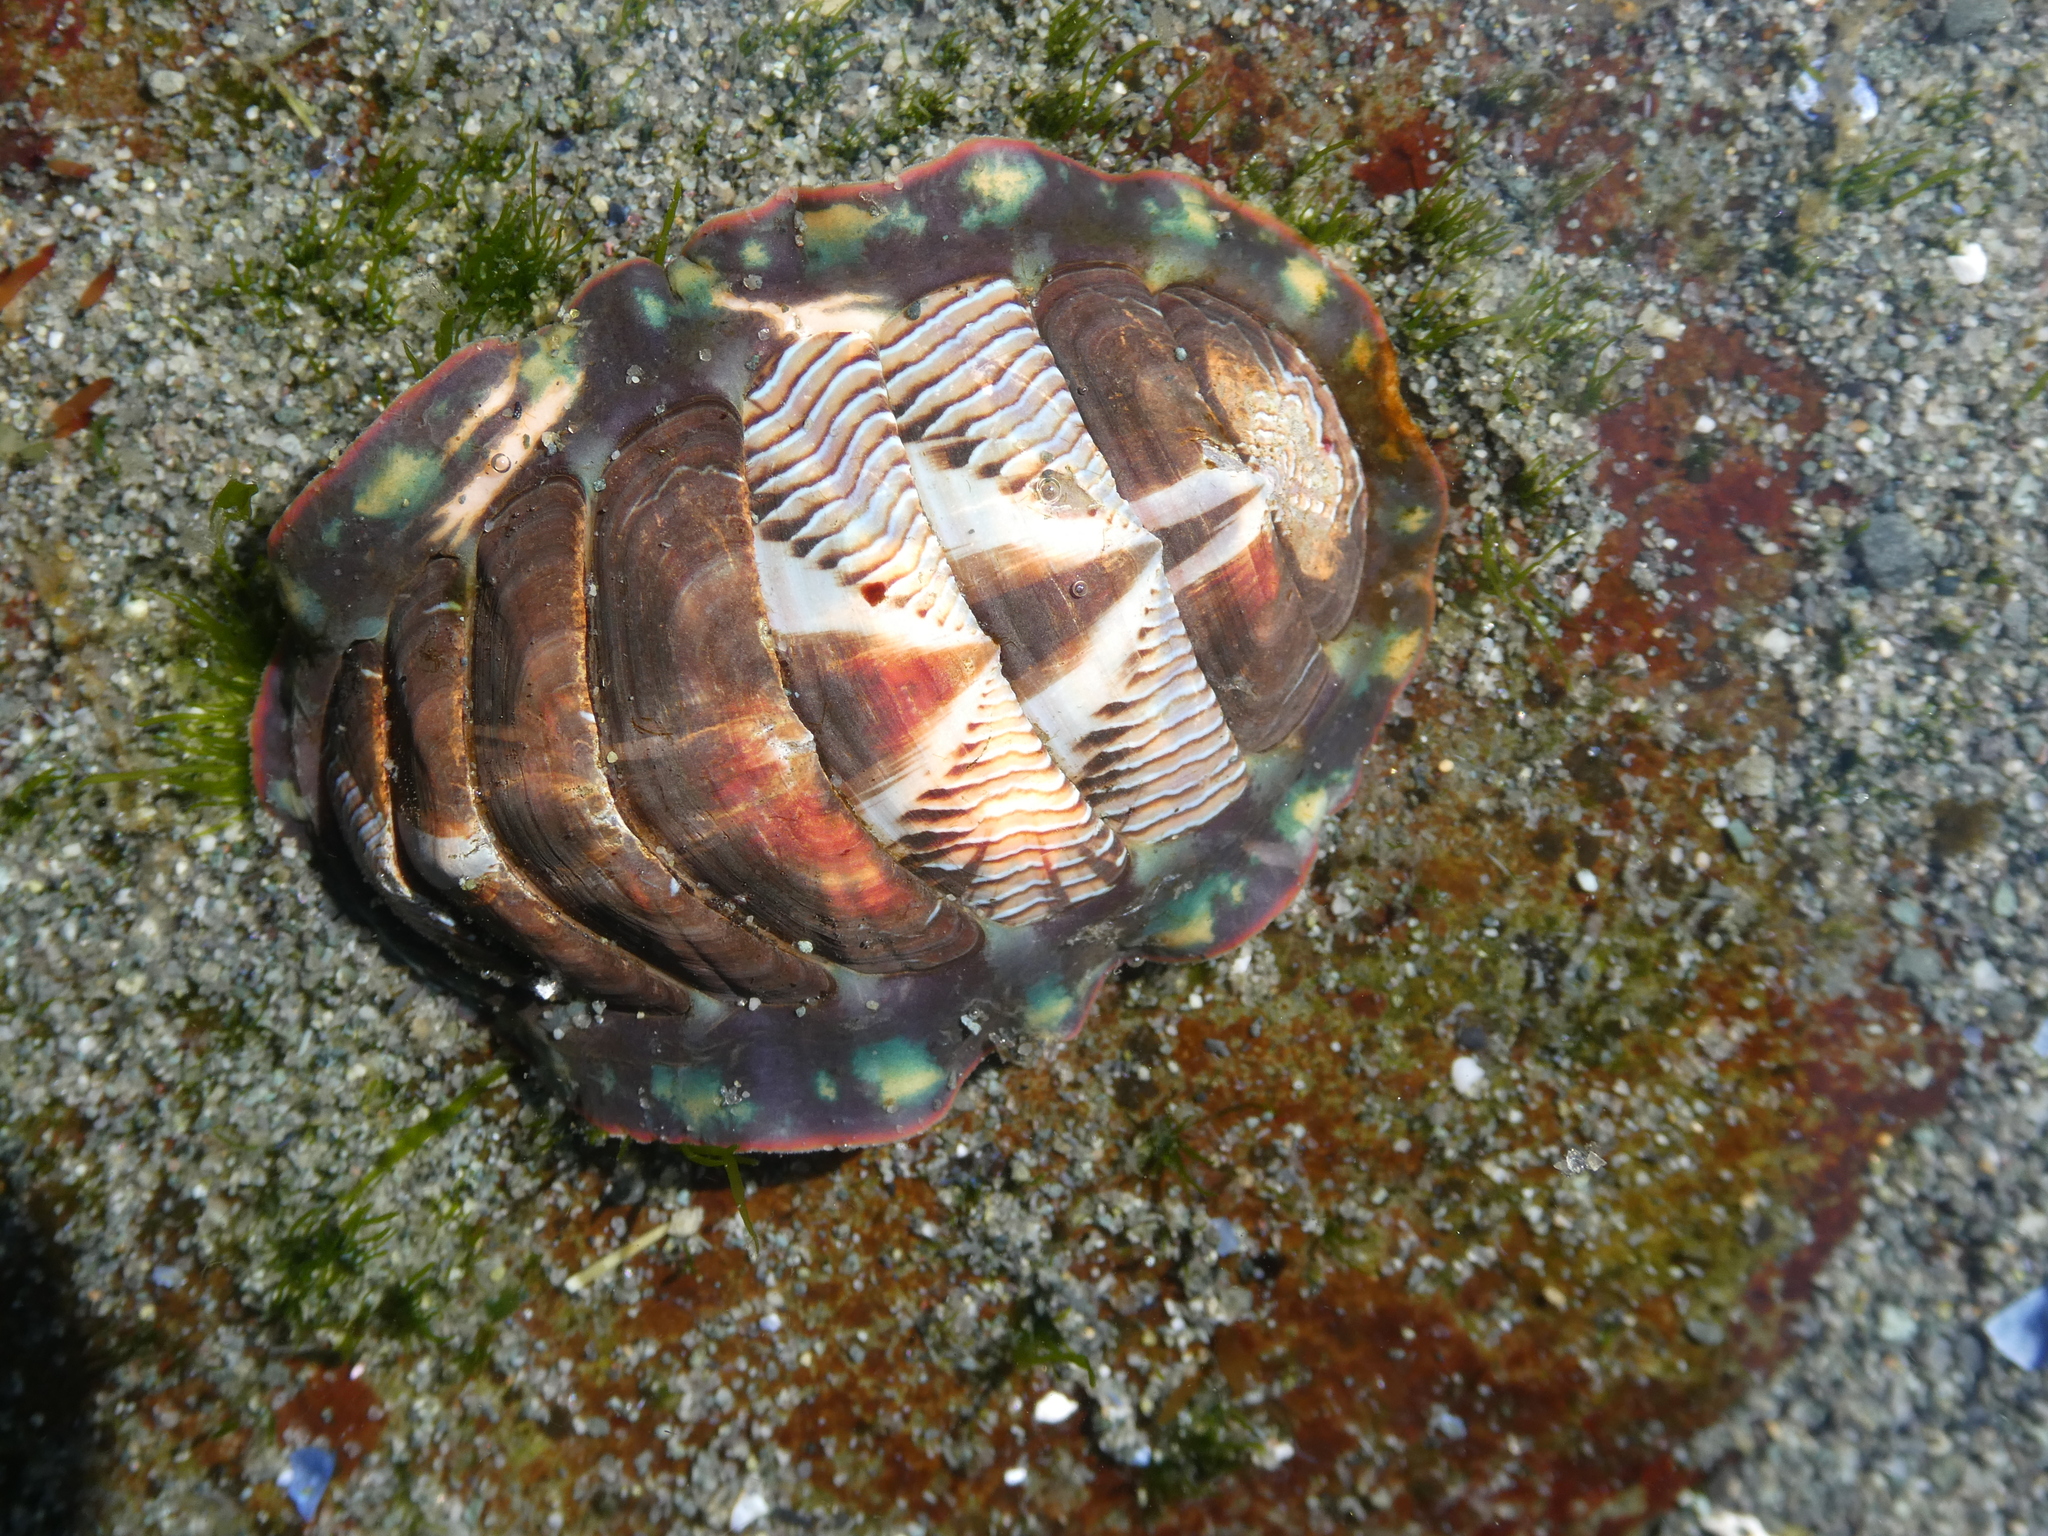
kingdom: Animalia
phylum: Mollusca
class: Polyplacophora
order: Chitonida
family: Tonicellidae
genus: Tonicella
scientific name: Tonicella lineata
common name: Lined chiton
